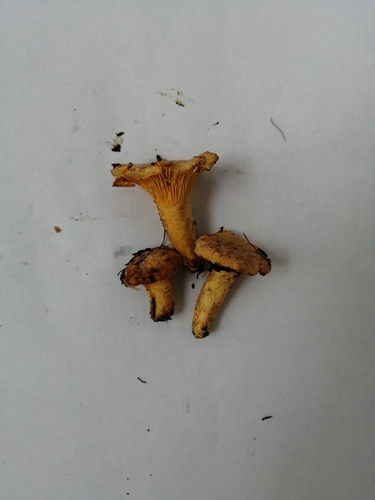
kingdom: Fungi
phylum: Basidiomycota
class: Agaricomycetes
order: Cantharellales
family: Hydnaceae
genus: Cantharellus
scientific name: Cantharellus cibarius
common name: Chanterelle
